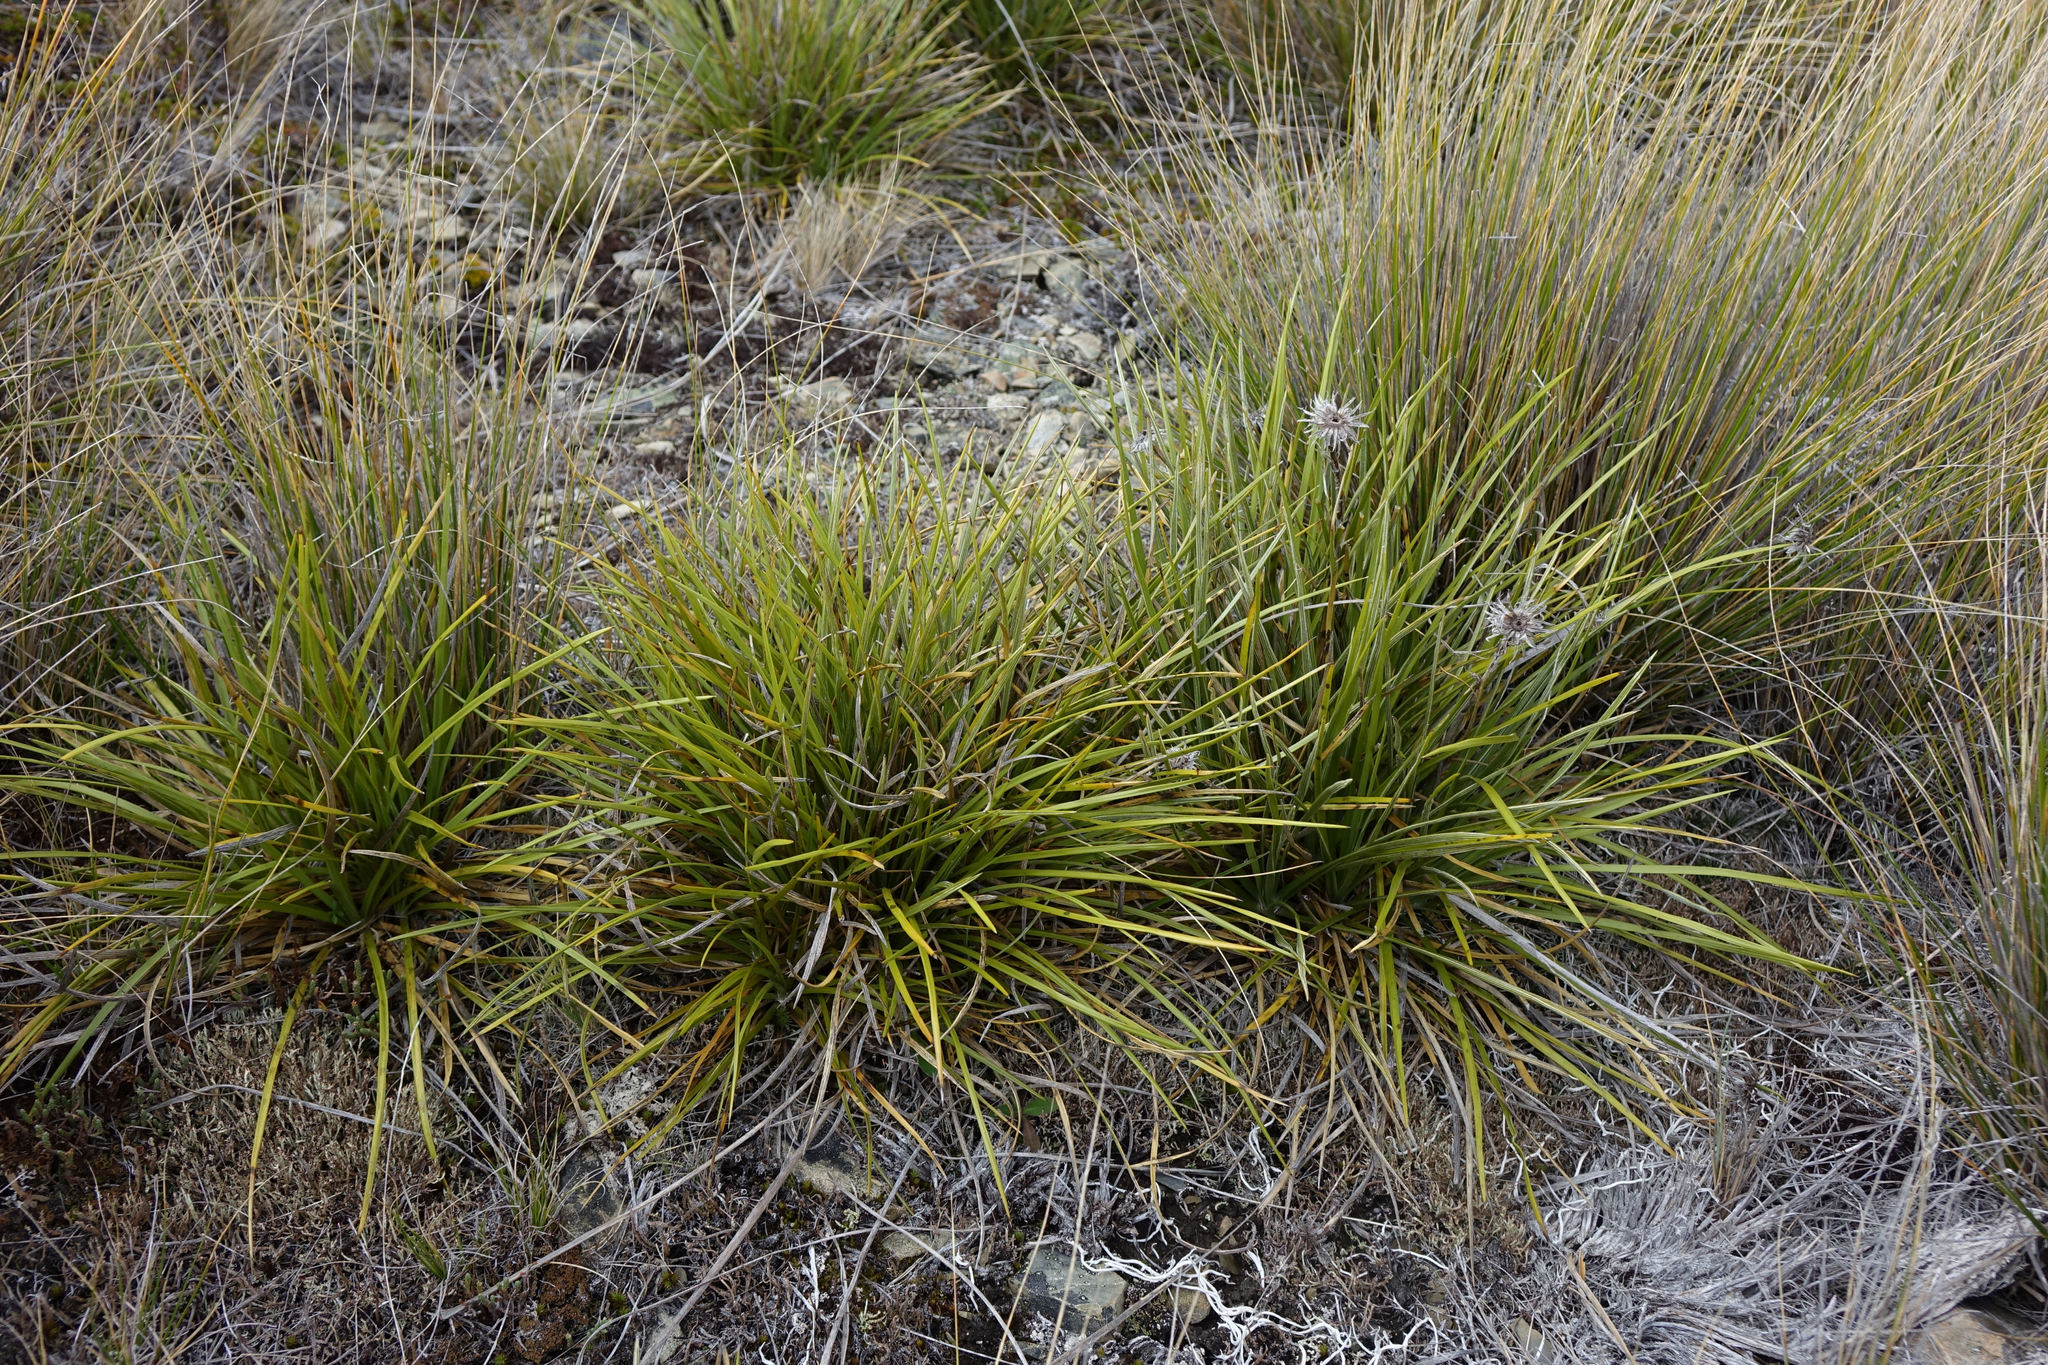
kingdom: Plantae
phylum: Tracheophyta
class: Magnoliopsida
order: Asterales
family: Asteraceae
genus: Celmisia
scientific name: Celmisia lyallii
